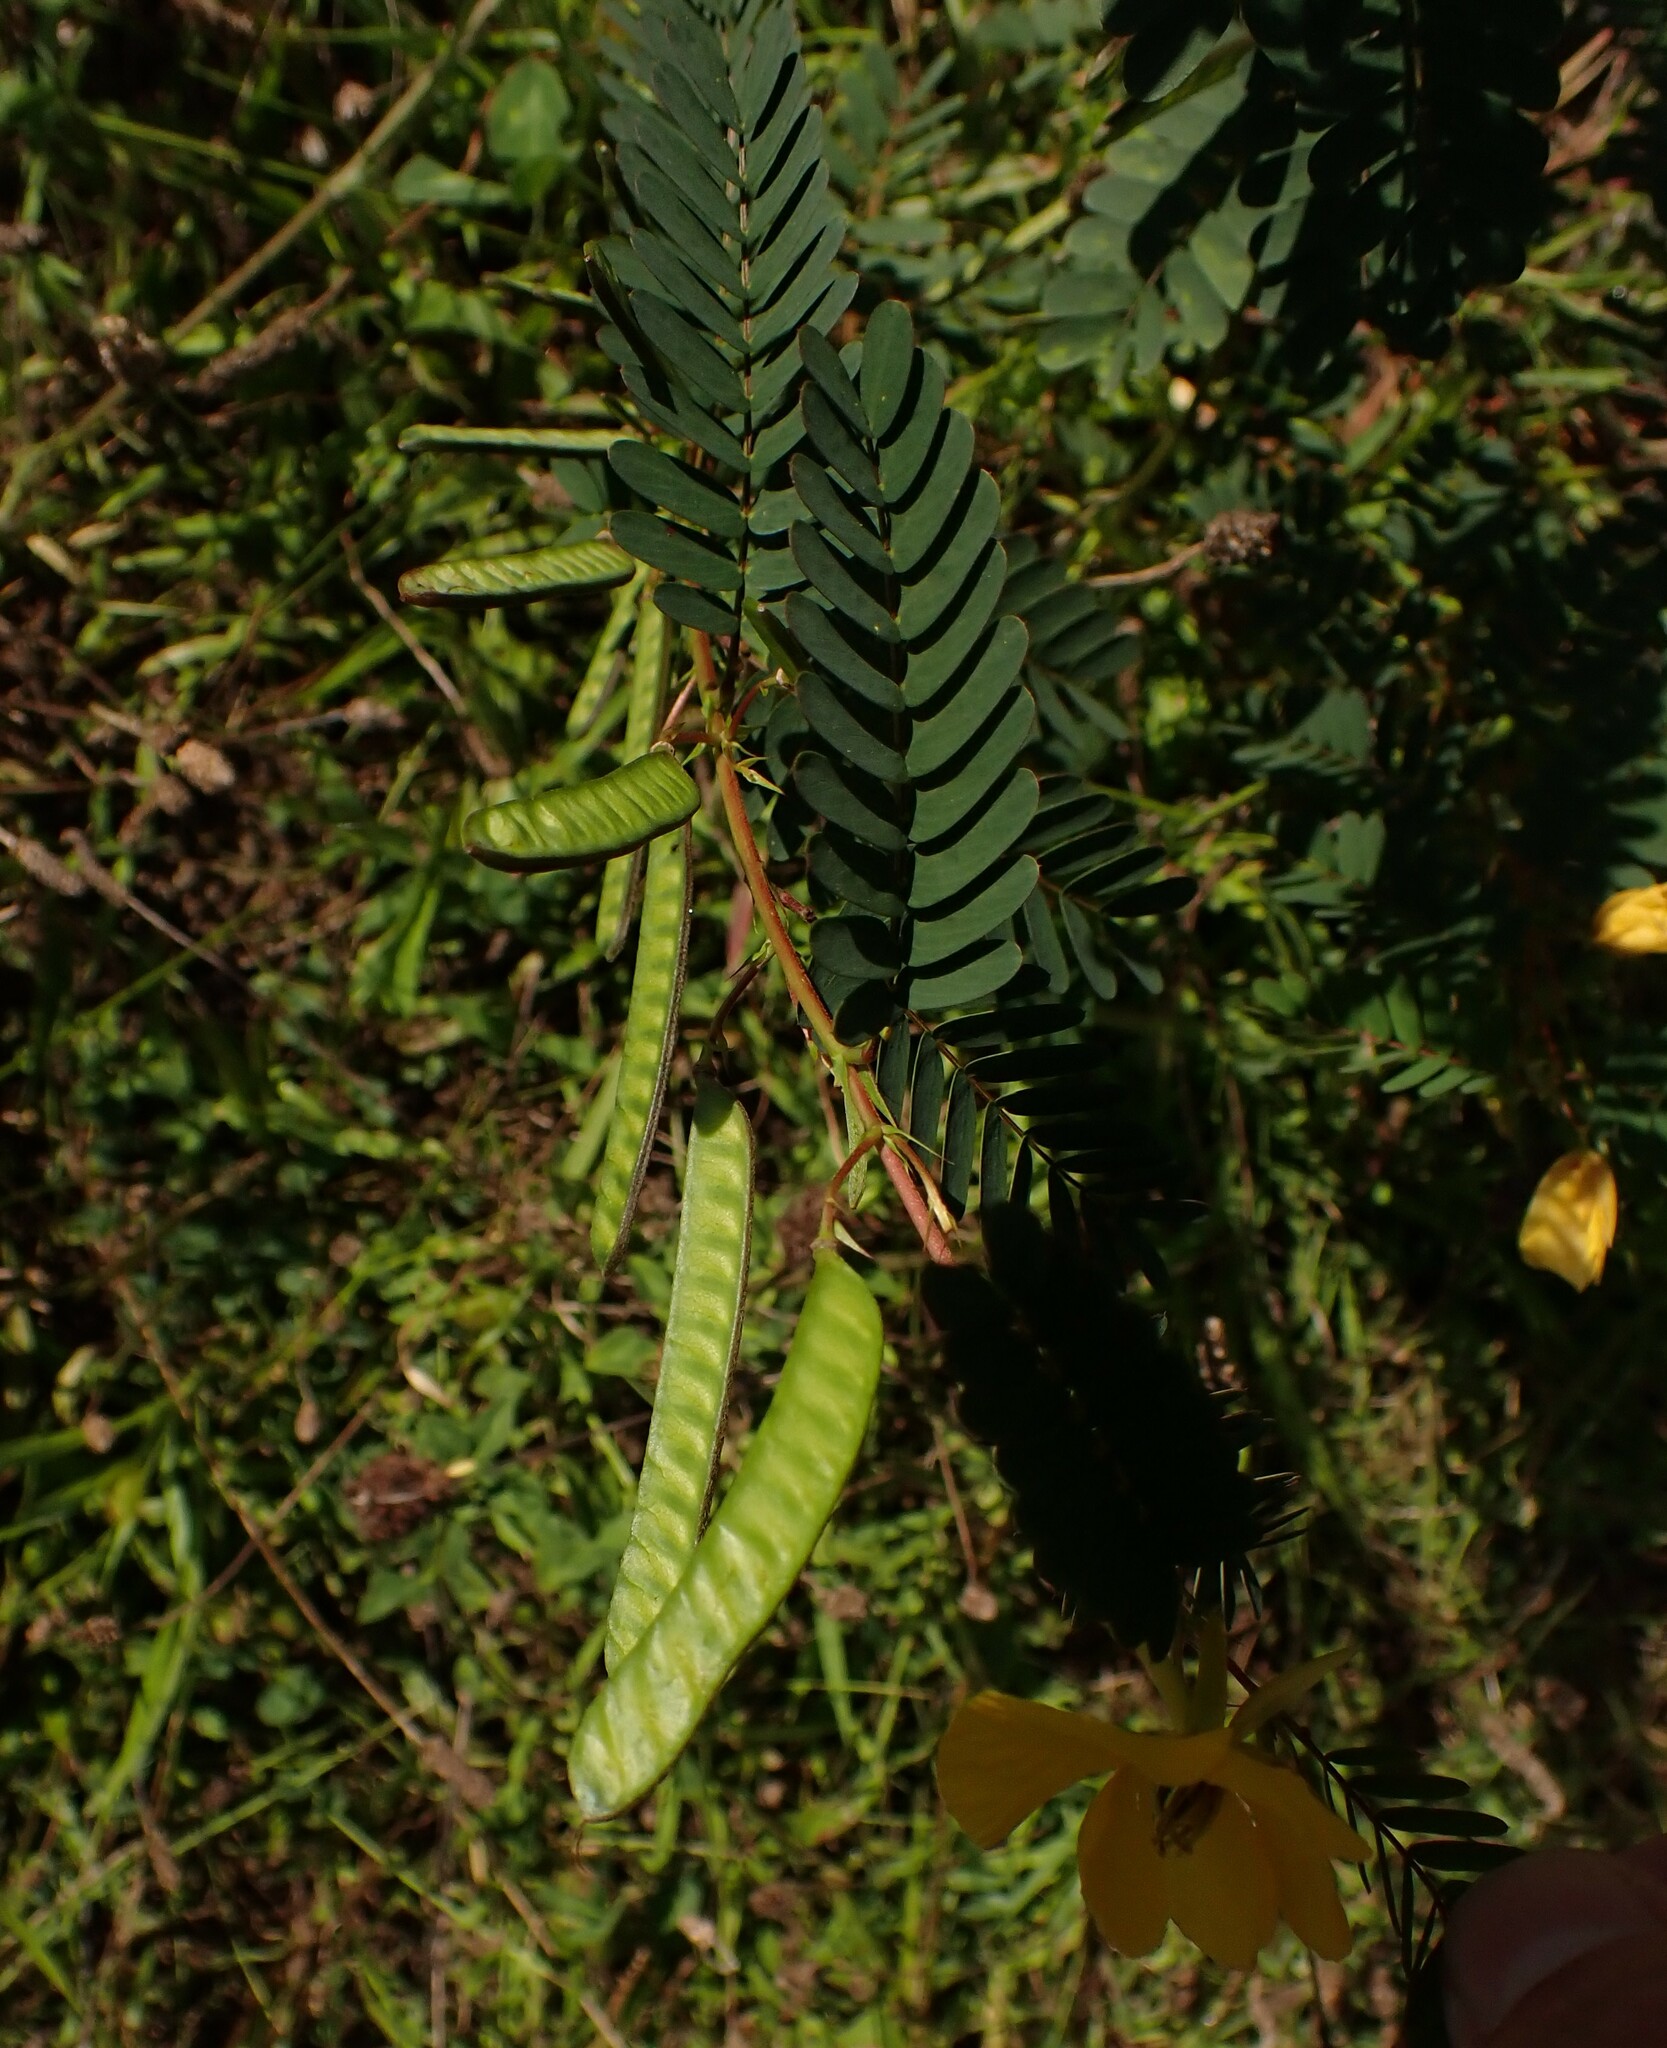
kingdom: Plantae
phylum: Tracheophyta
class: Magnoliopsida
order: Fabales
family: Fabaceae
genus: Chamaecrista
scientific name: Chamaecrista fasciculata
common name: Golden cassia
